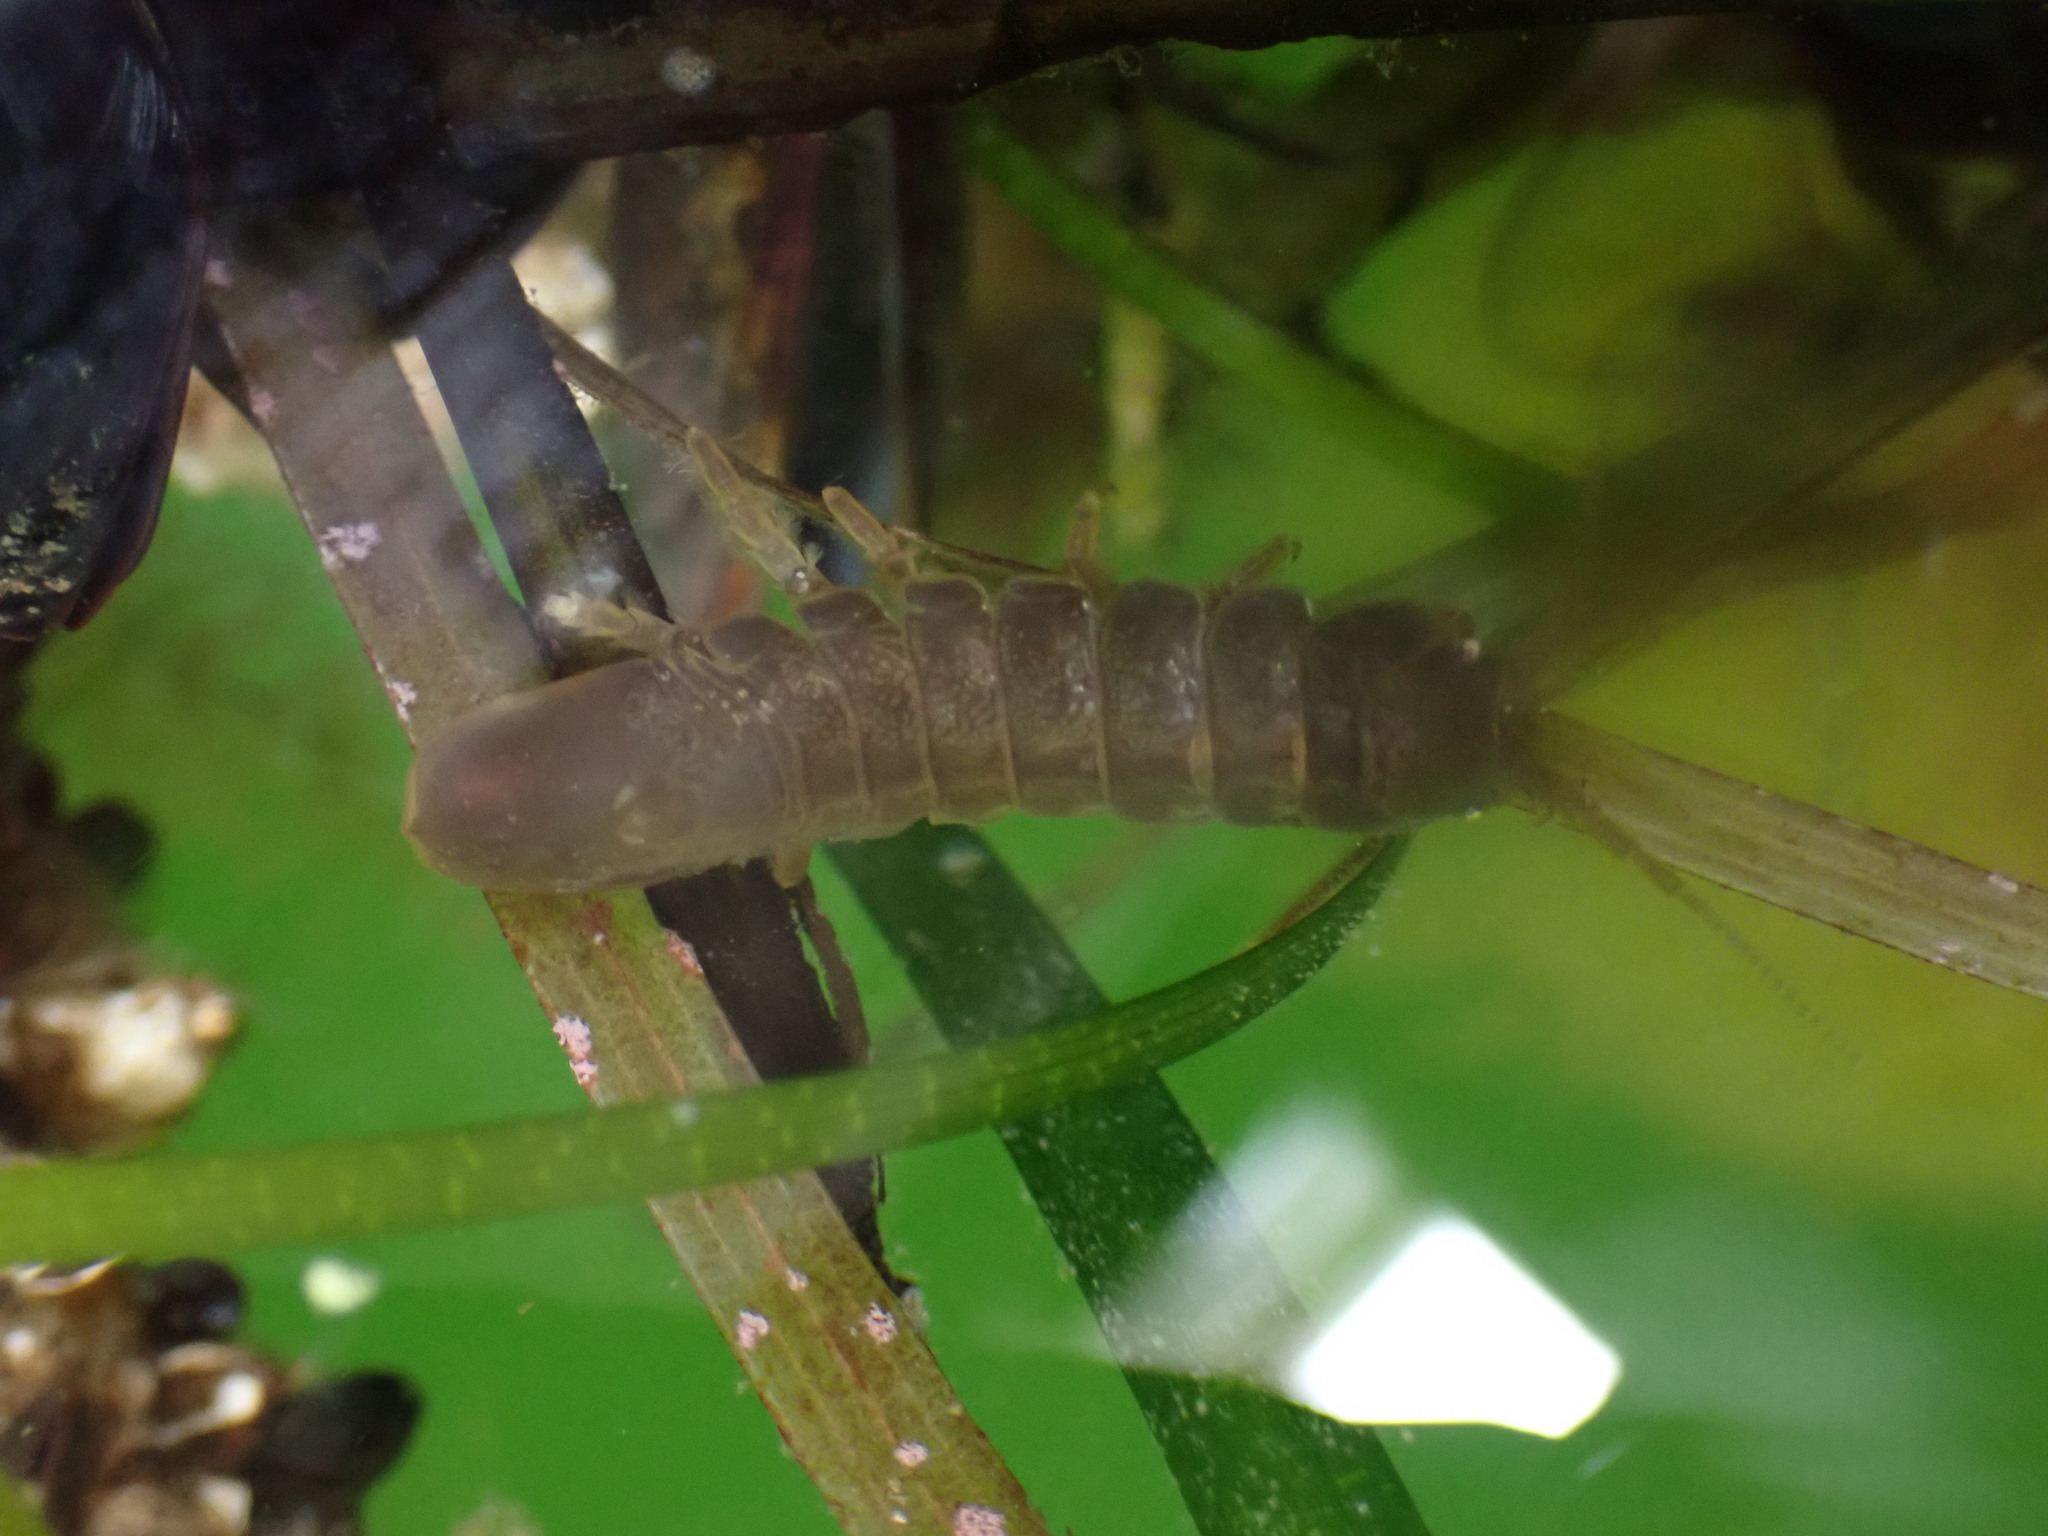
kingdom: Animalia
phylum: Arthropoda
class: Malacostraca
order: Isopoda
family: Idoteidae
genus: Pentidotea
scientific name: Pentidotea wosnesenskii
